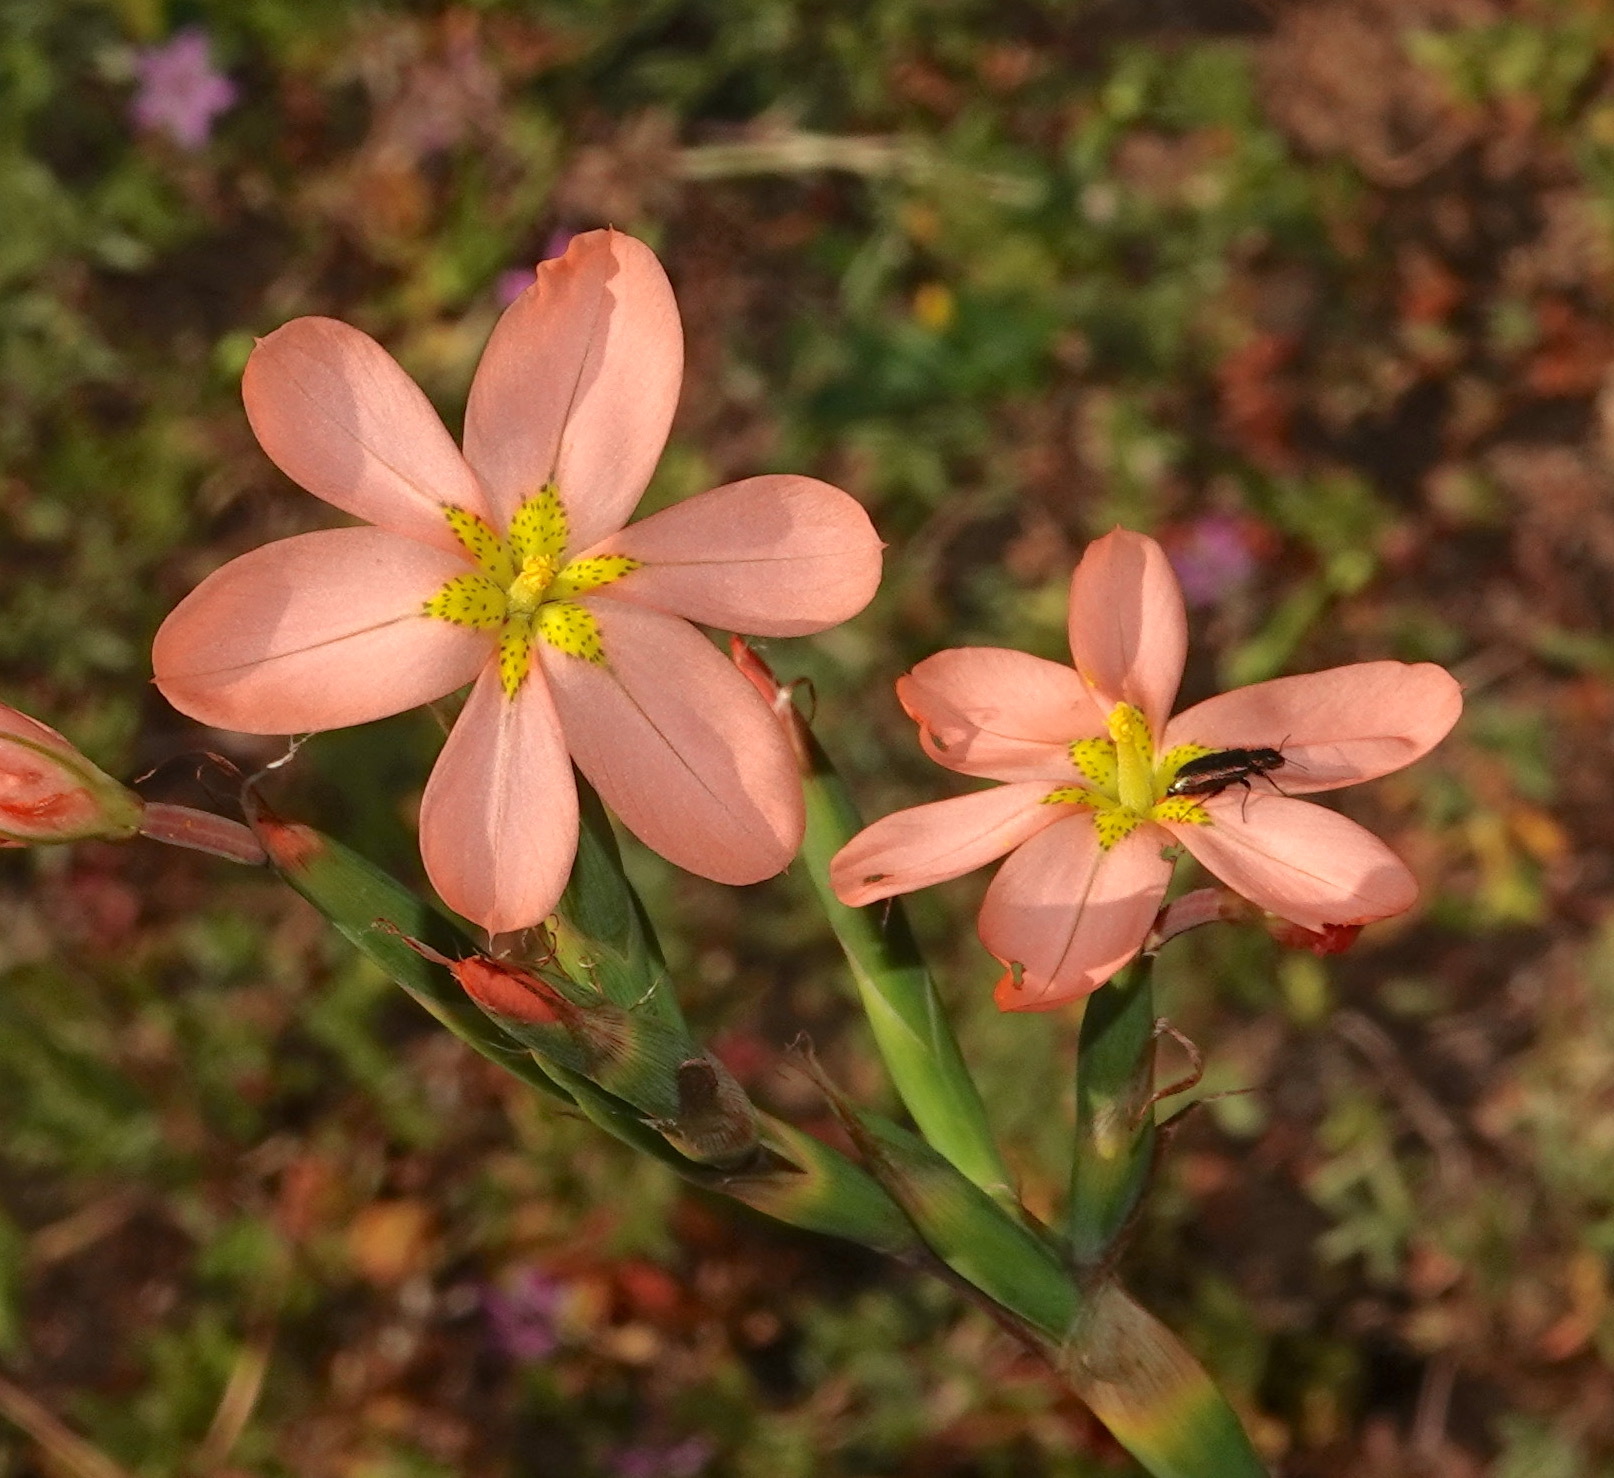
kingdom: Plantae
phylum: Tracheophyta
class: Liliopsida
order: Asparagales
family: Iridaceae
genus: Moraea
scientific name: Moraea miniata
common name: Two-leaf cape-tulip
